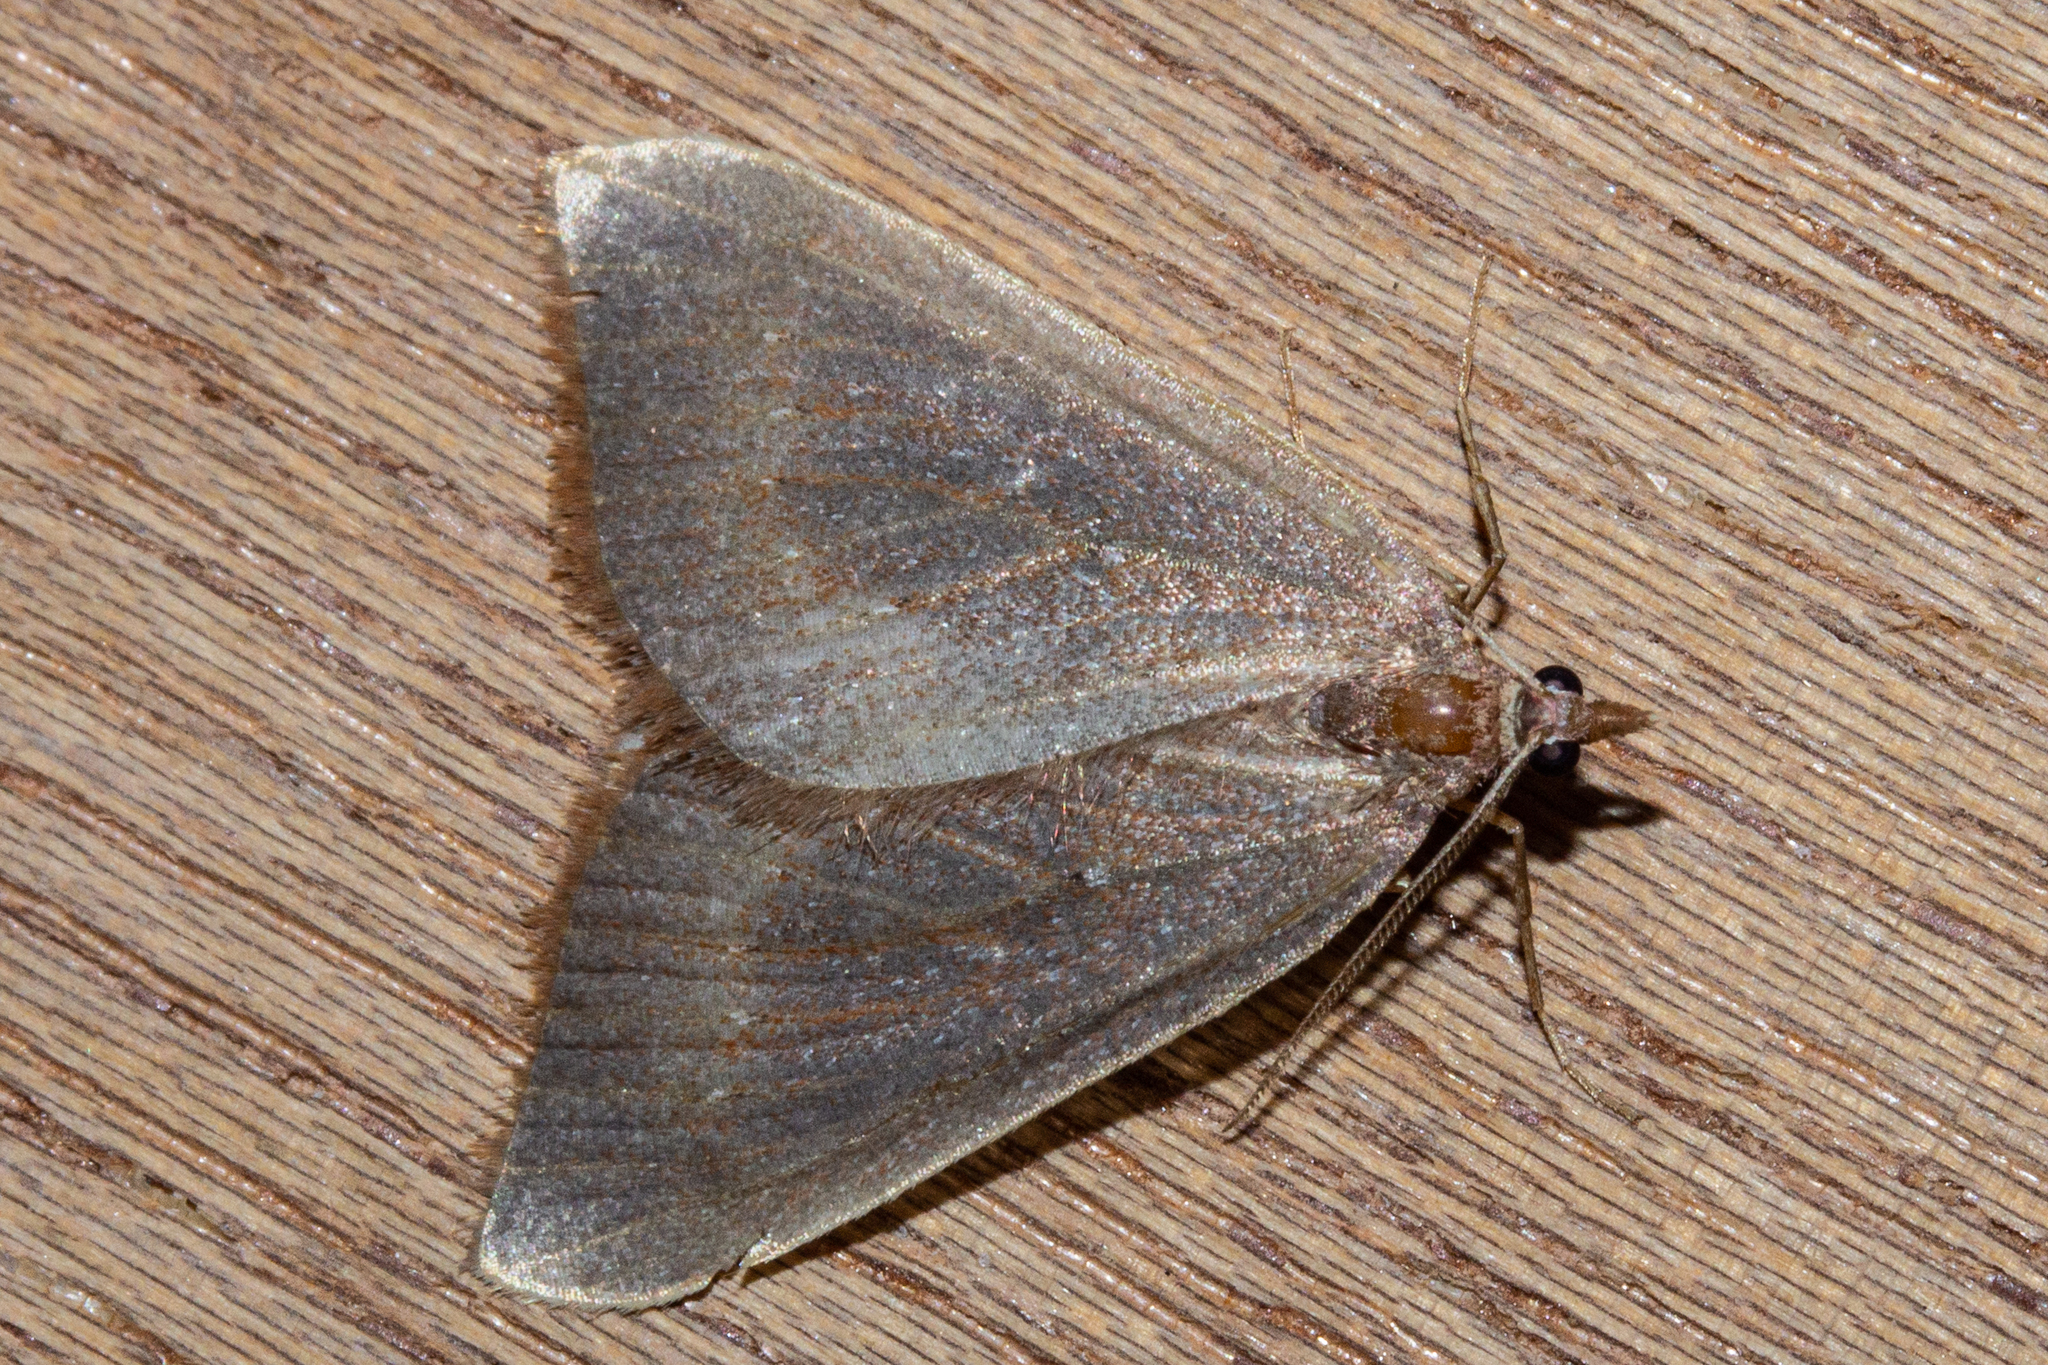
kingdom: Animalia
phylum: Arthropoda
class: Insecta
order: Lepidoptera
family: Geometridae
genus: Xanthorhoe
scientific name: Xanthorhoe occulta
